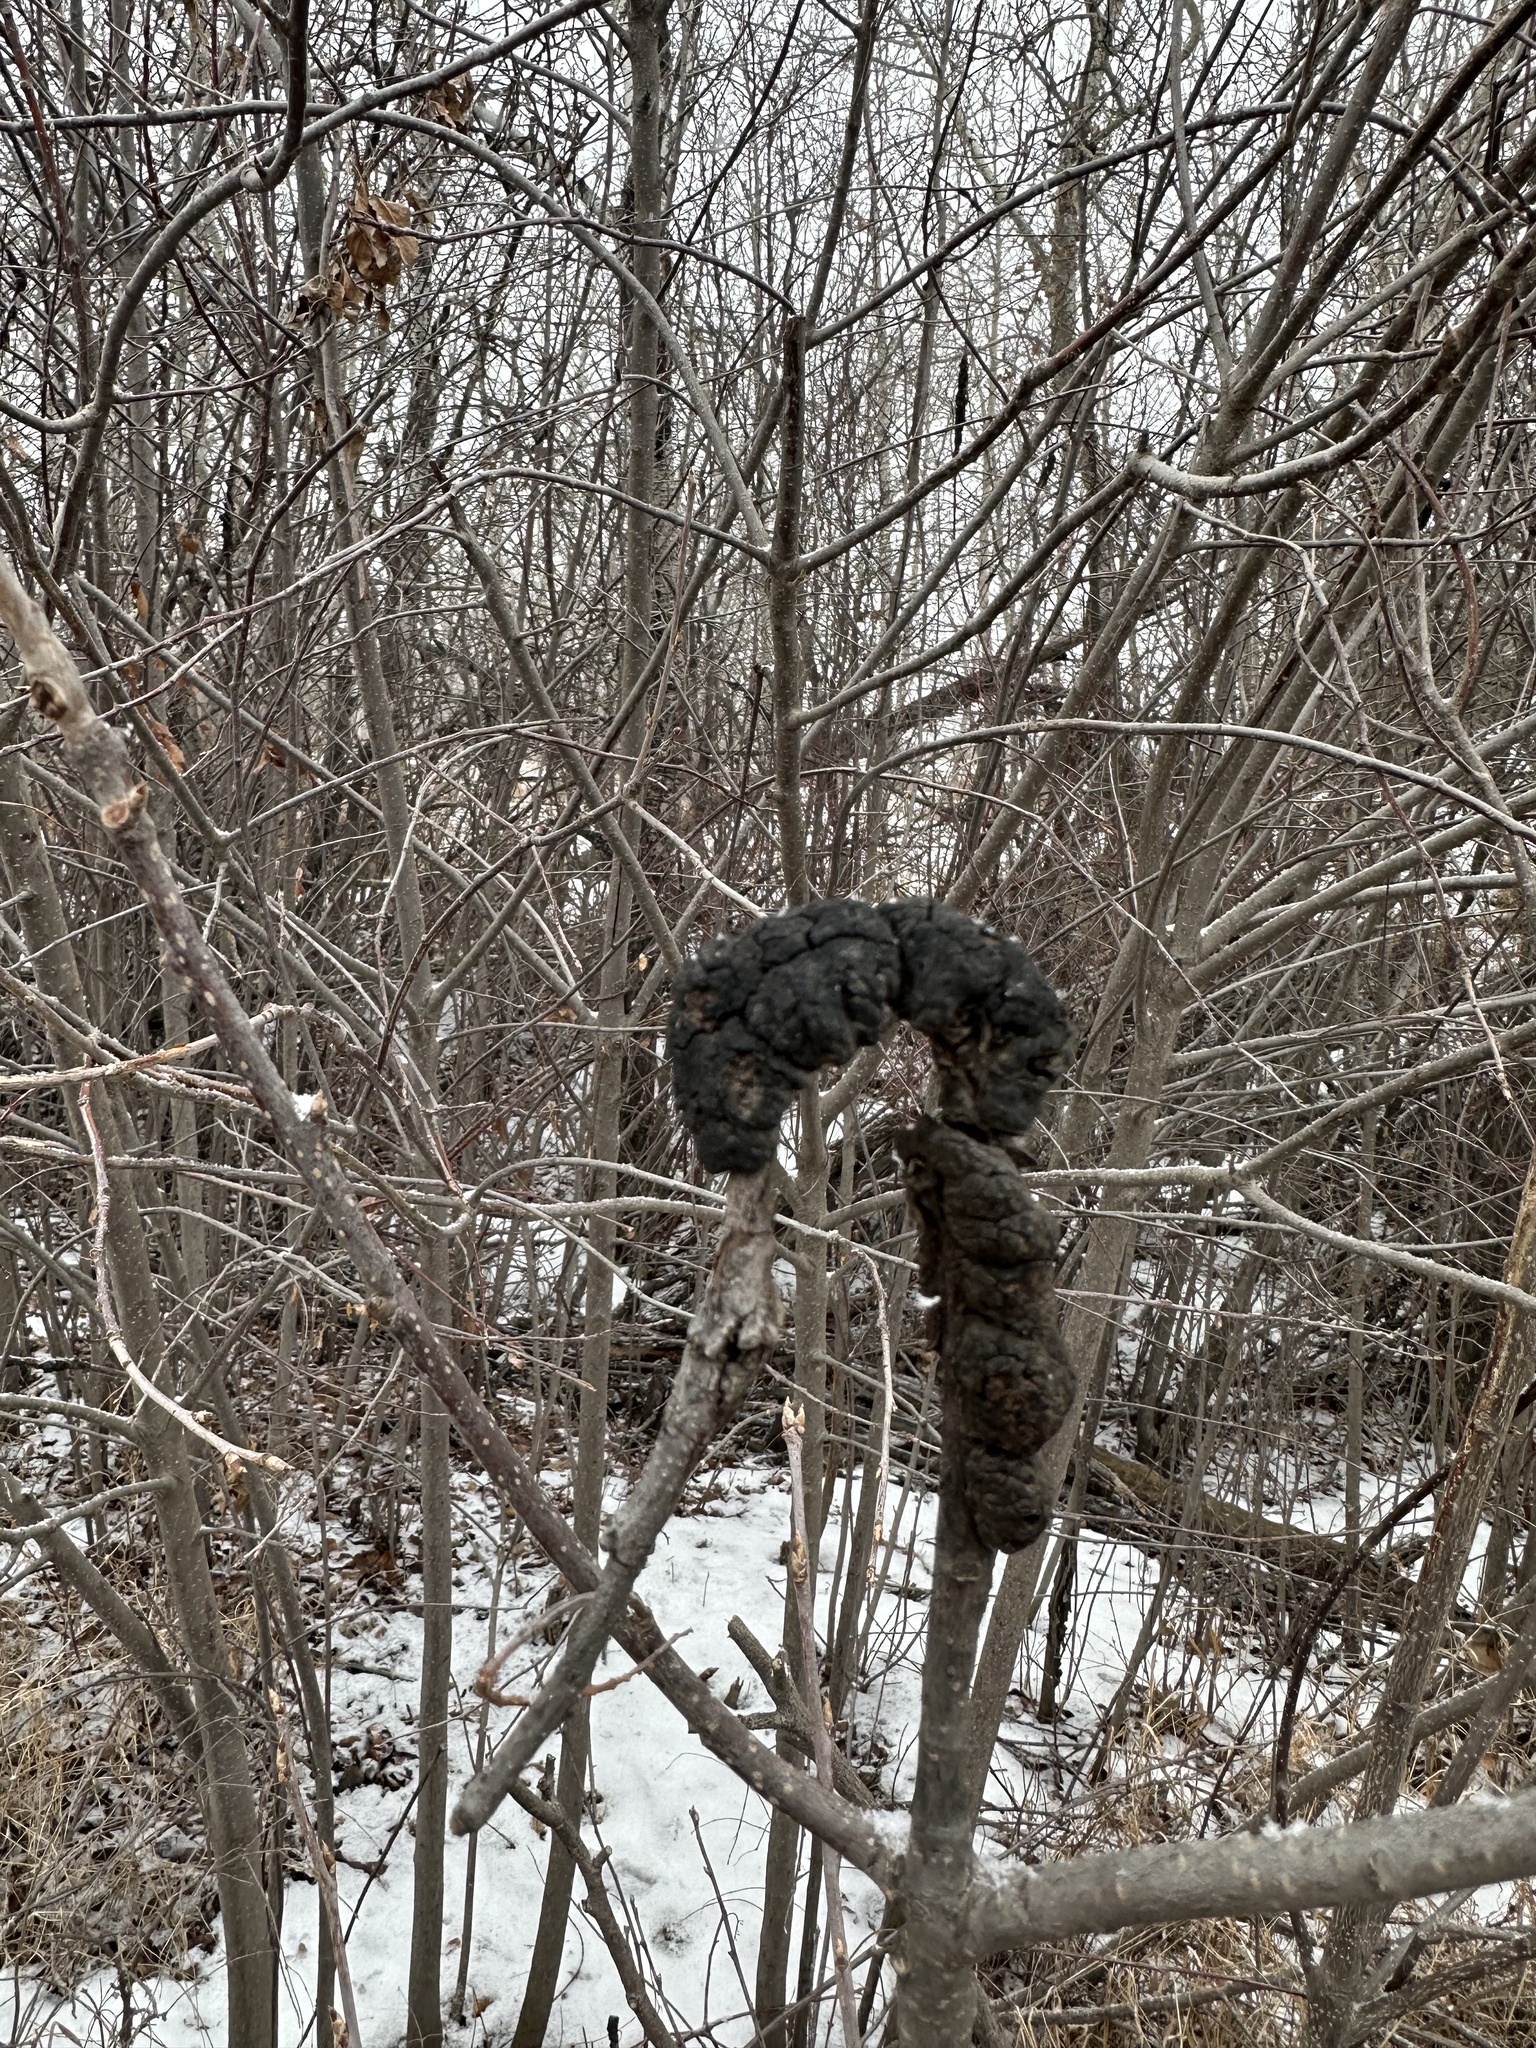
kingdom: Fungi
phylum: Ascomycota
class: Dothideomycetes
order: Venturiales
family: Venturiaceae
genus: Apiosporina
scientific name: Apiosporina morbosa
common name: Black knot
